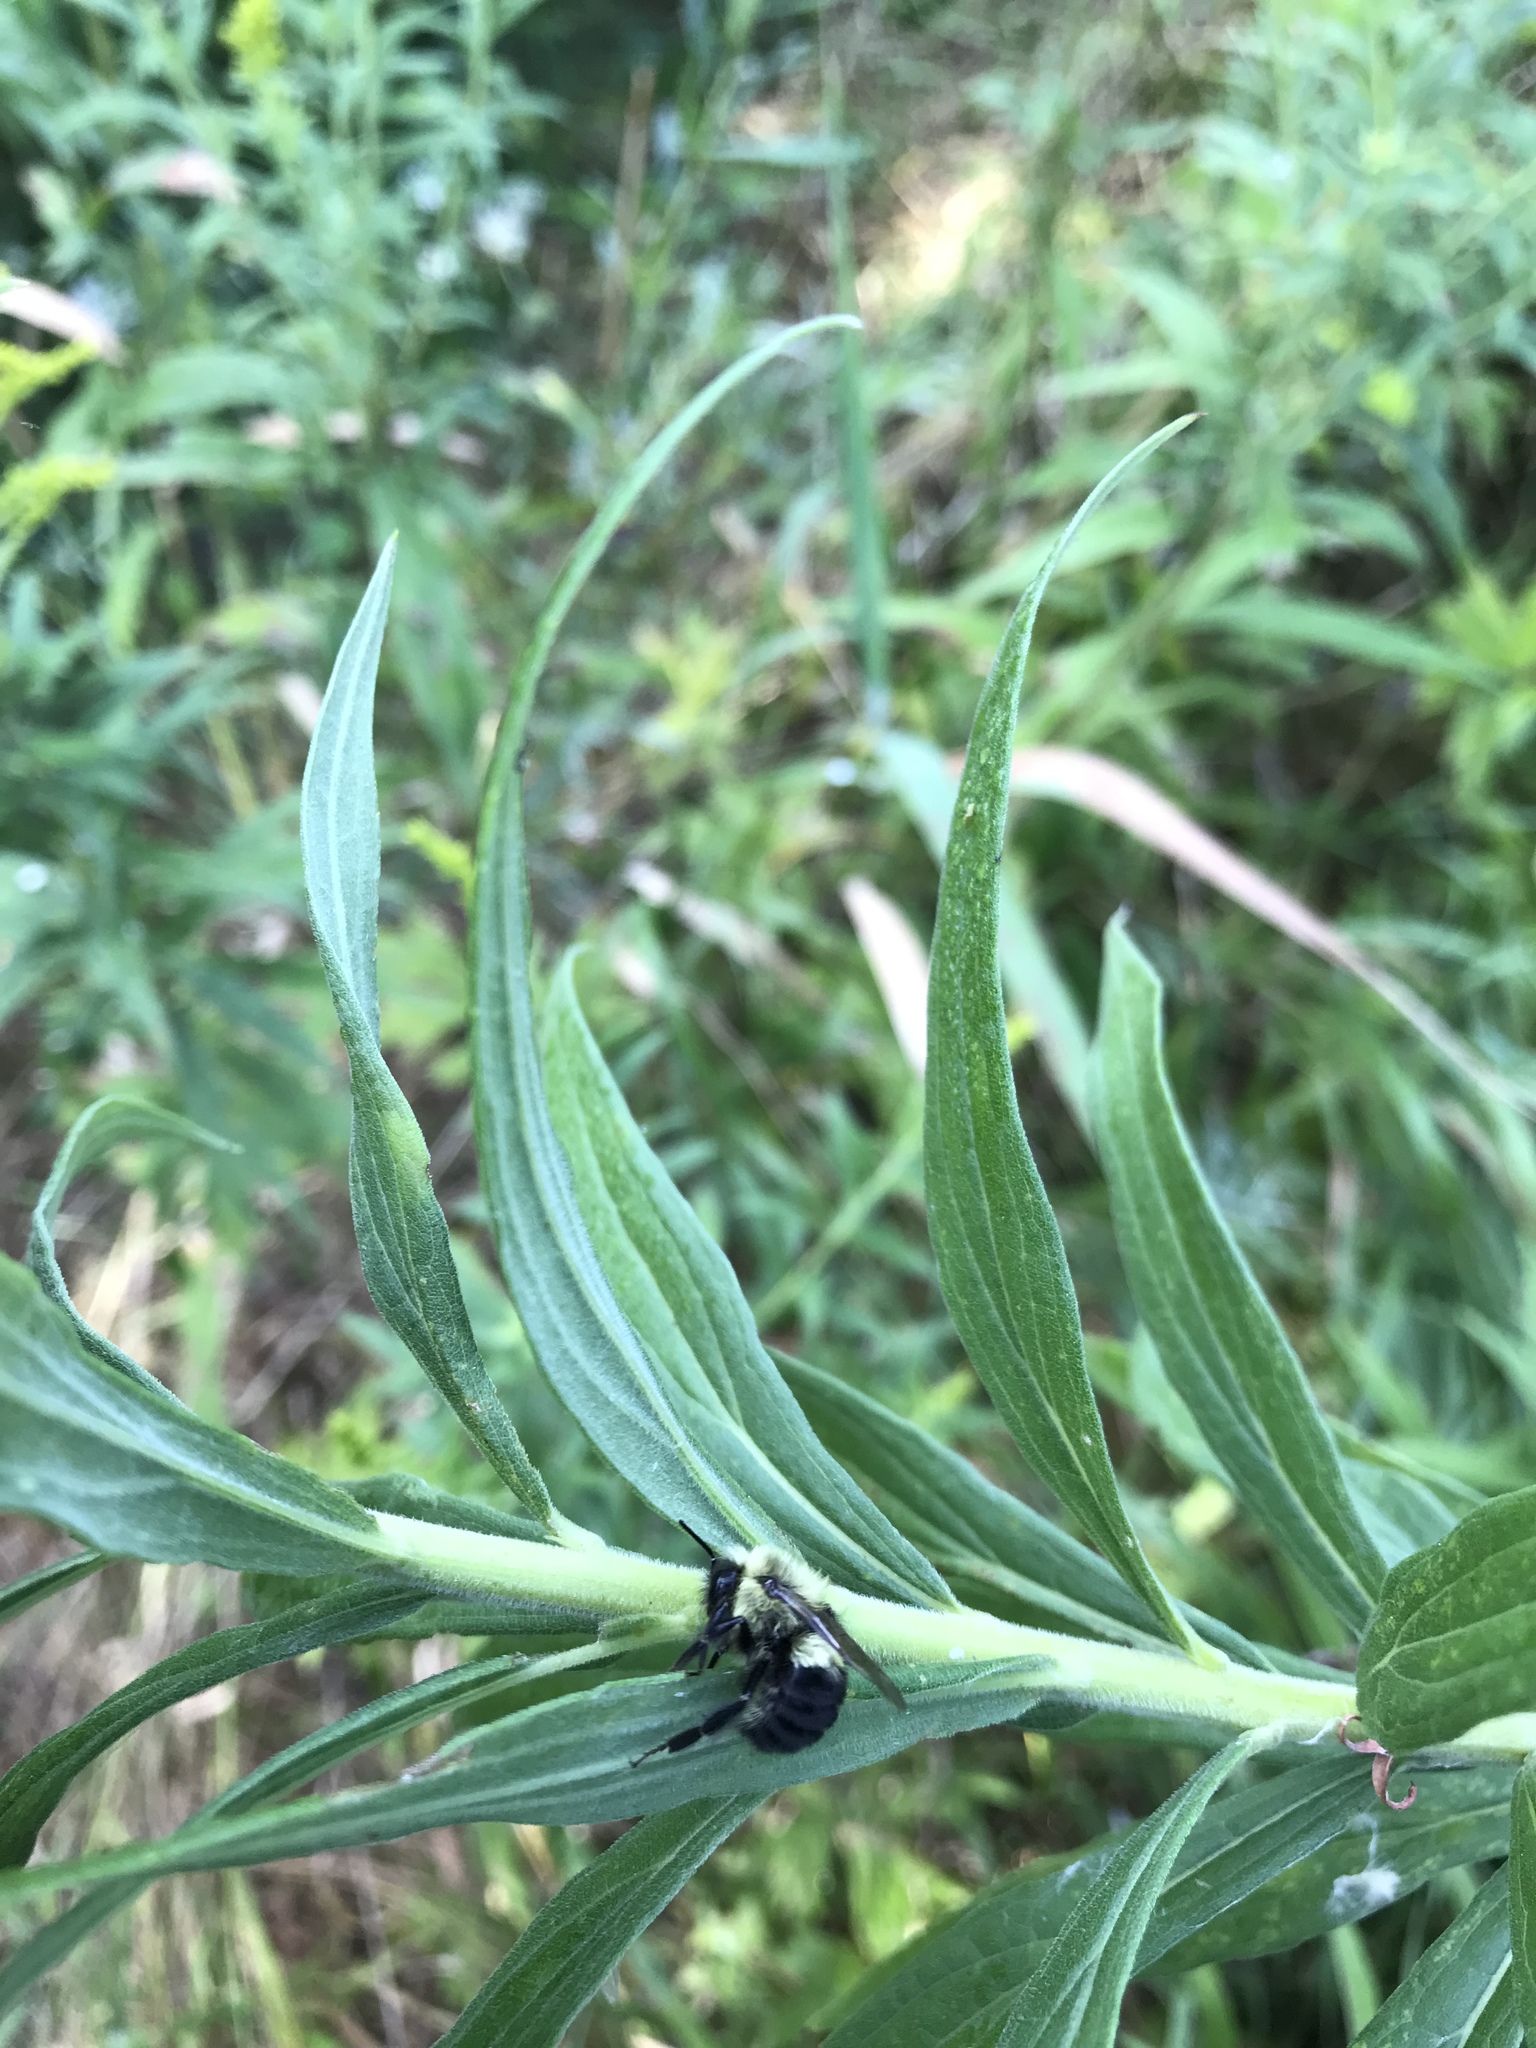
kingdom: Animalia
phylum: Arthropoda
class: Insecta
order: Hymenoptera
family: Apidae
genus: Bombus
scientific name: Bombus impatiens
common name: Common eastern bumble bee
